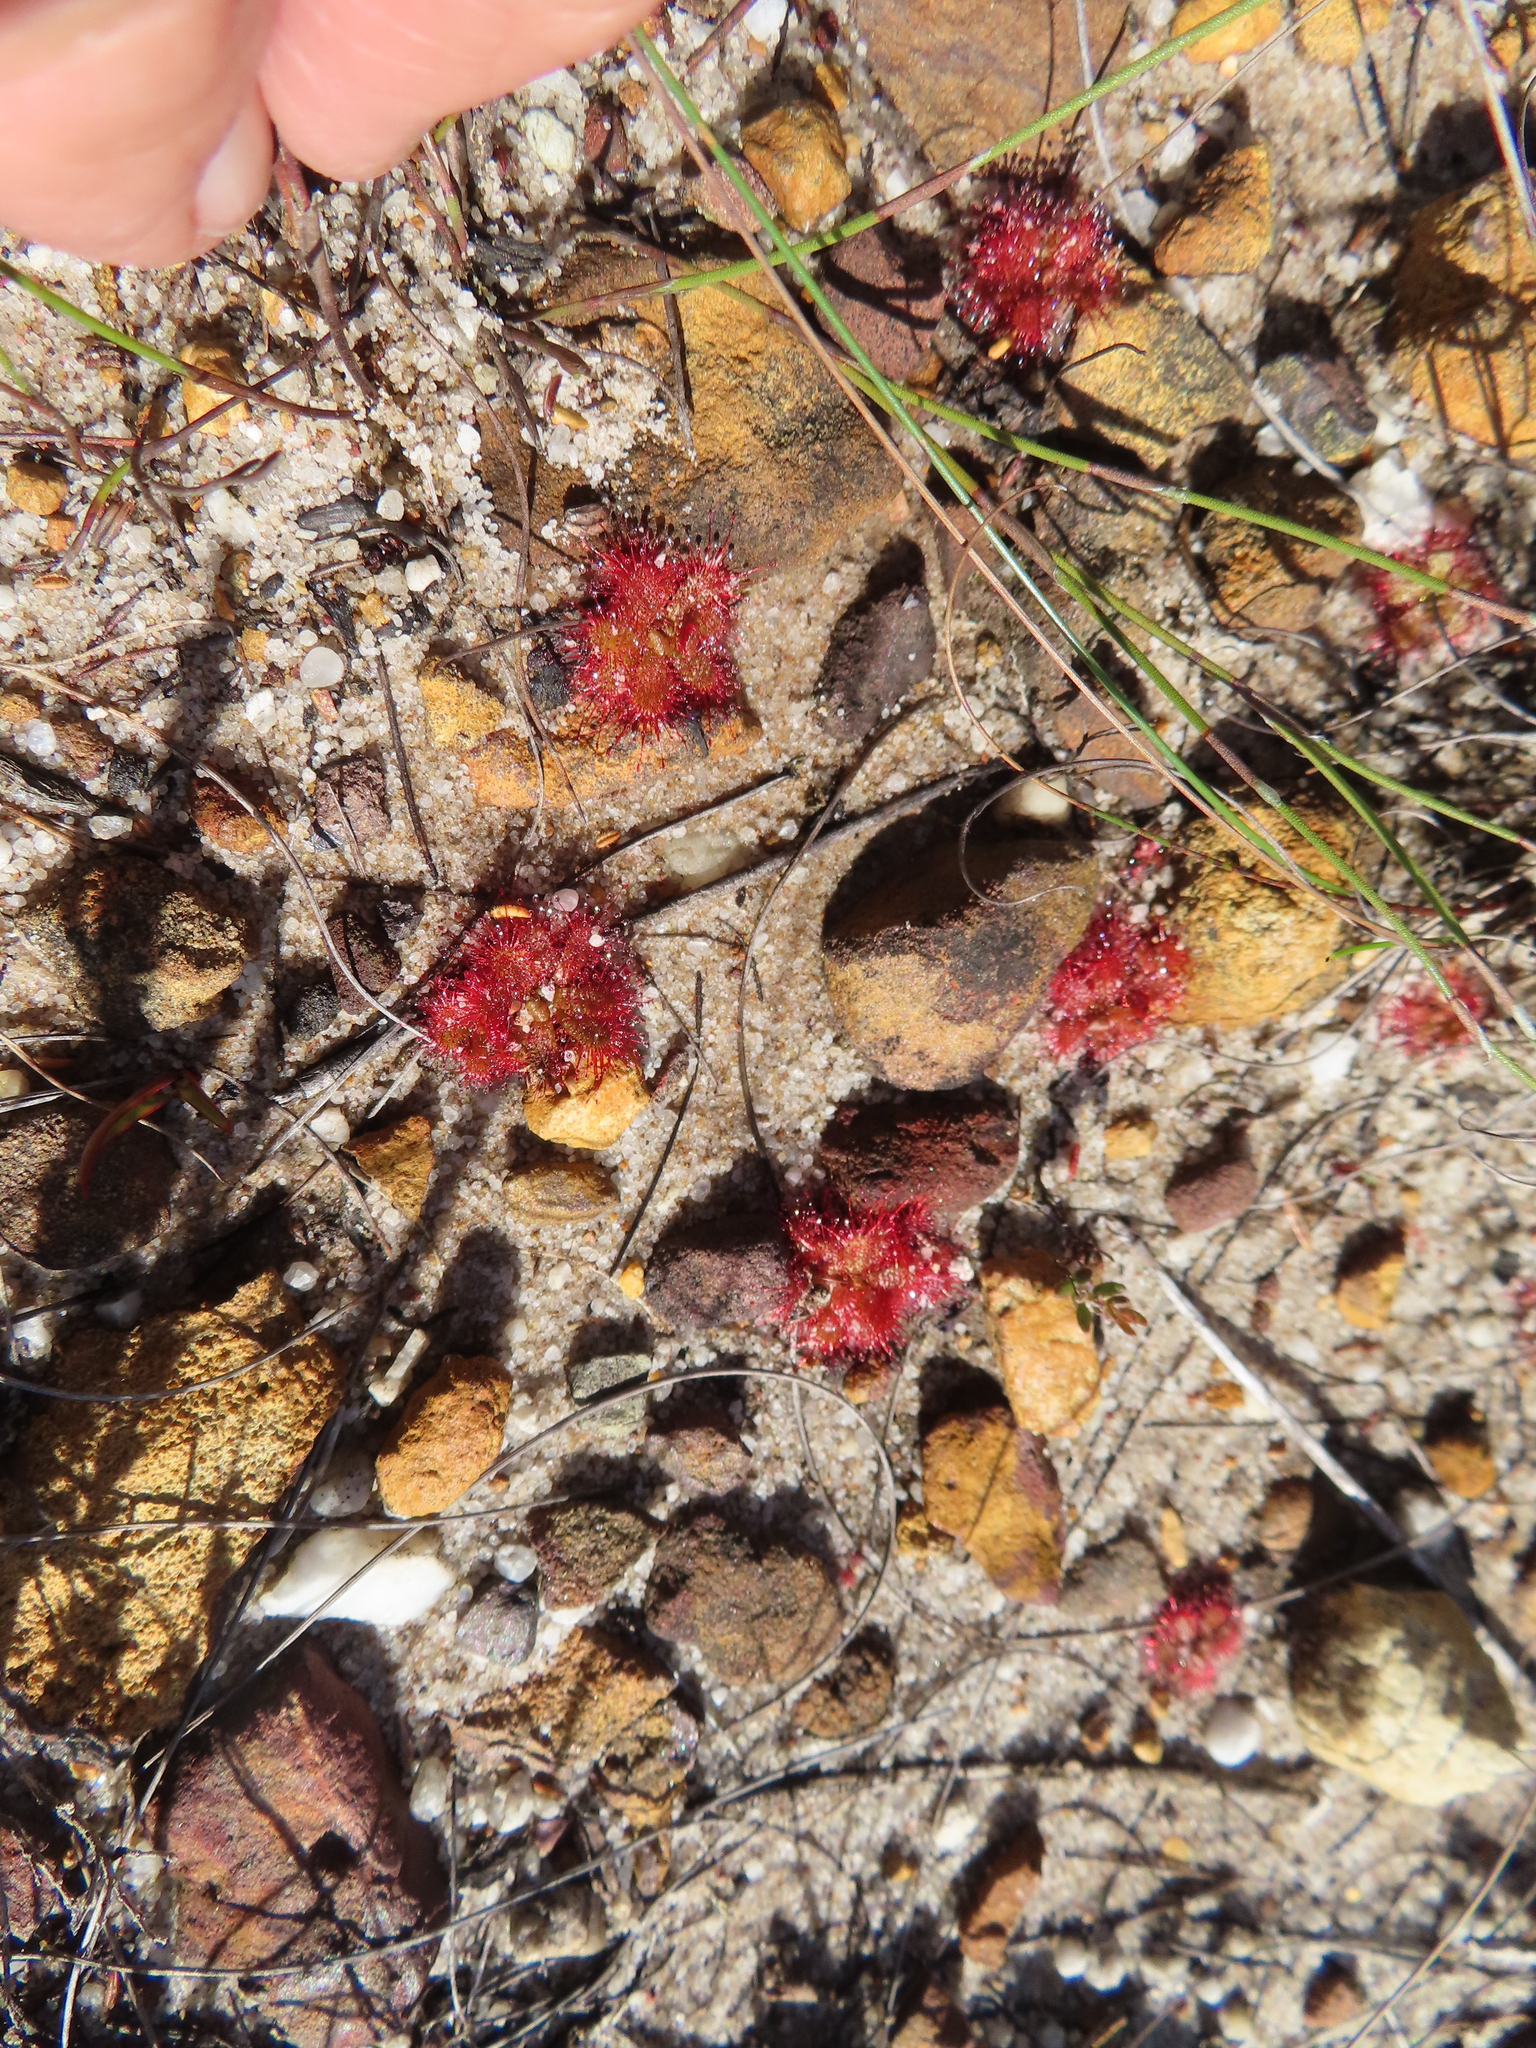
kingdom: Plantae
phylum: Tracheophyta
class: Magnoliopsida
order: Caryophyllales
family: Droseraceae
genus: Drosera
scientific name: Drosera trinervia
